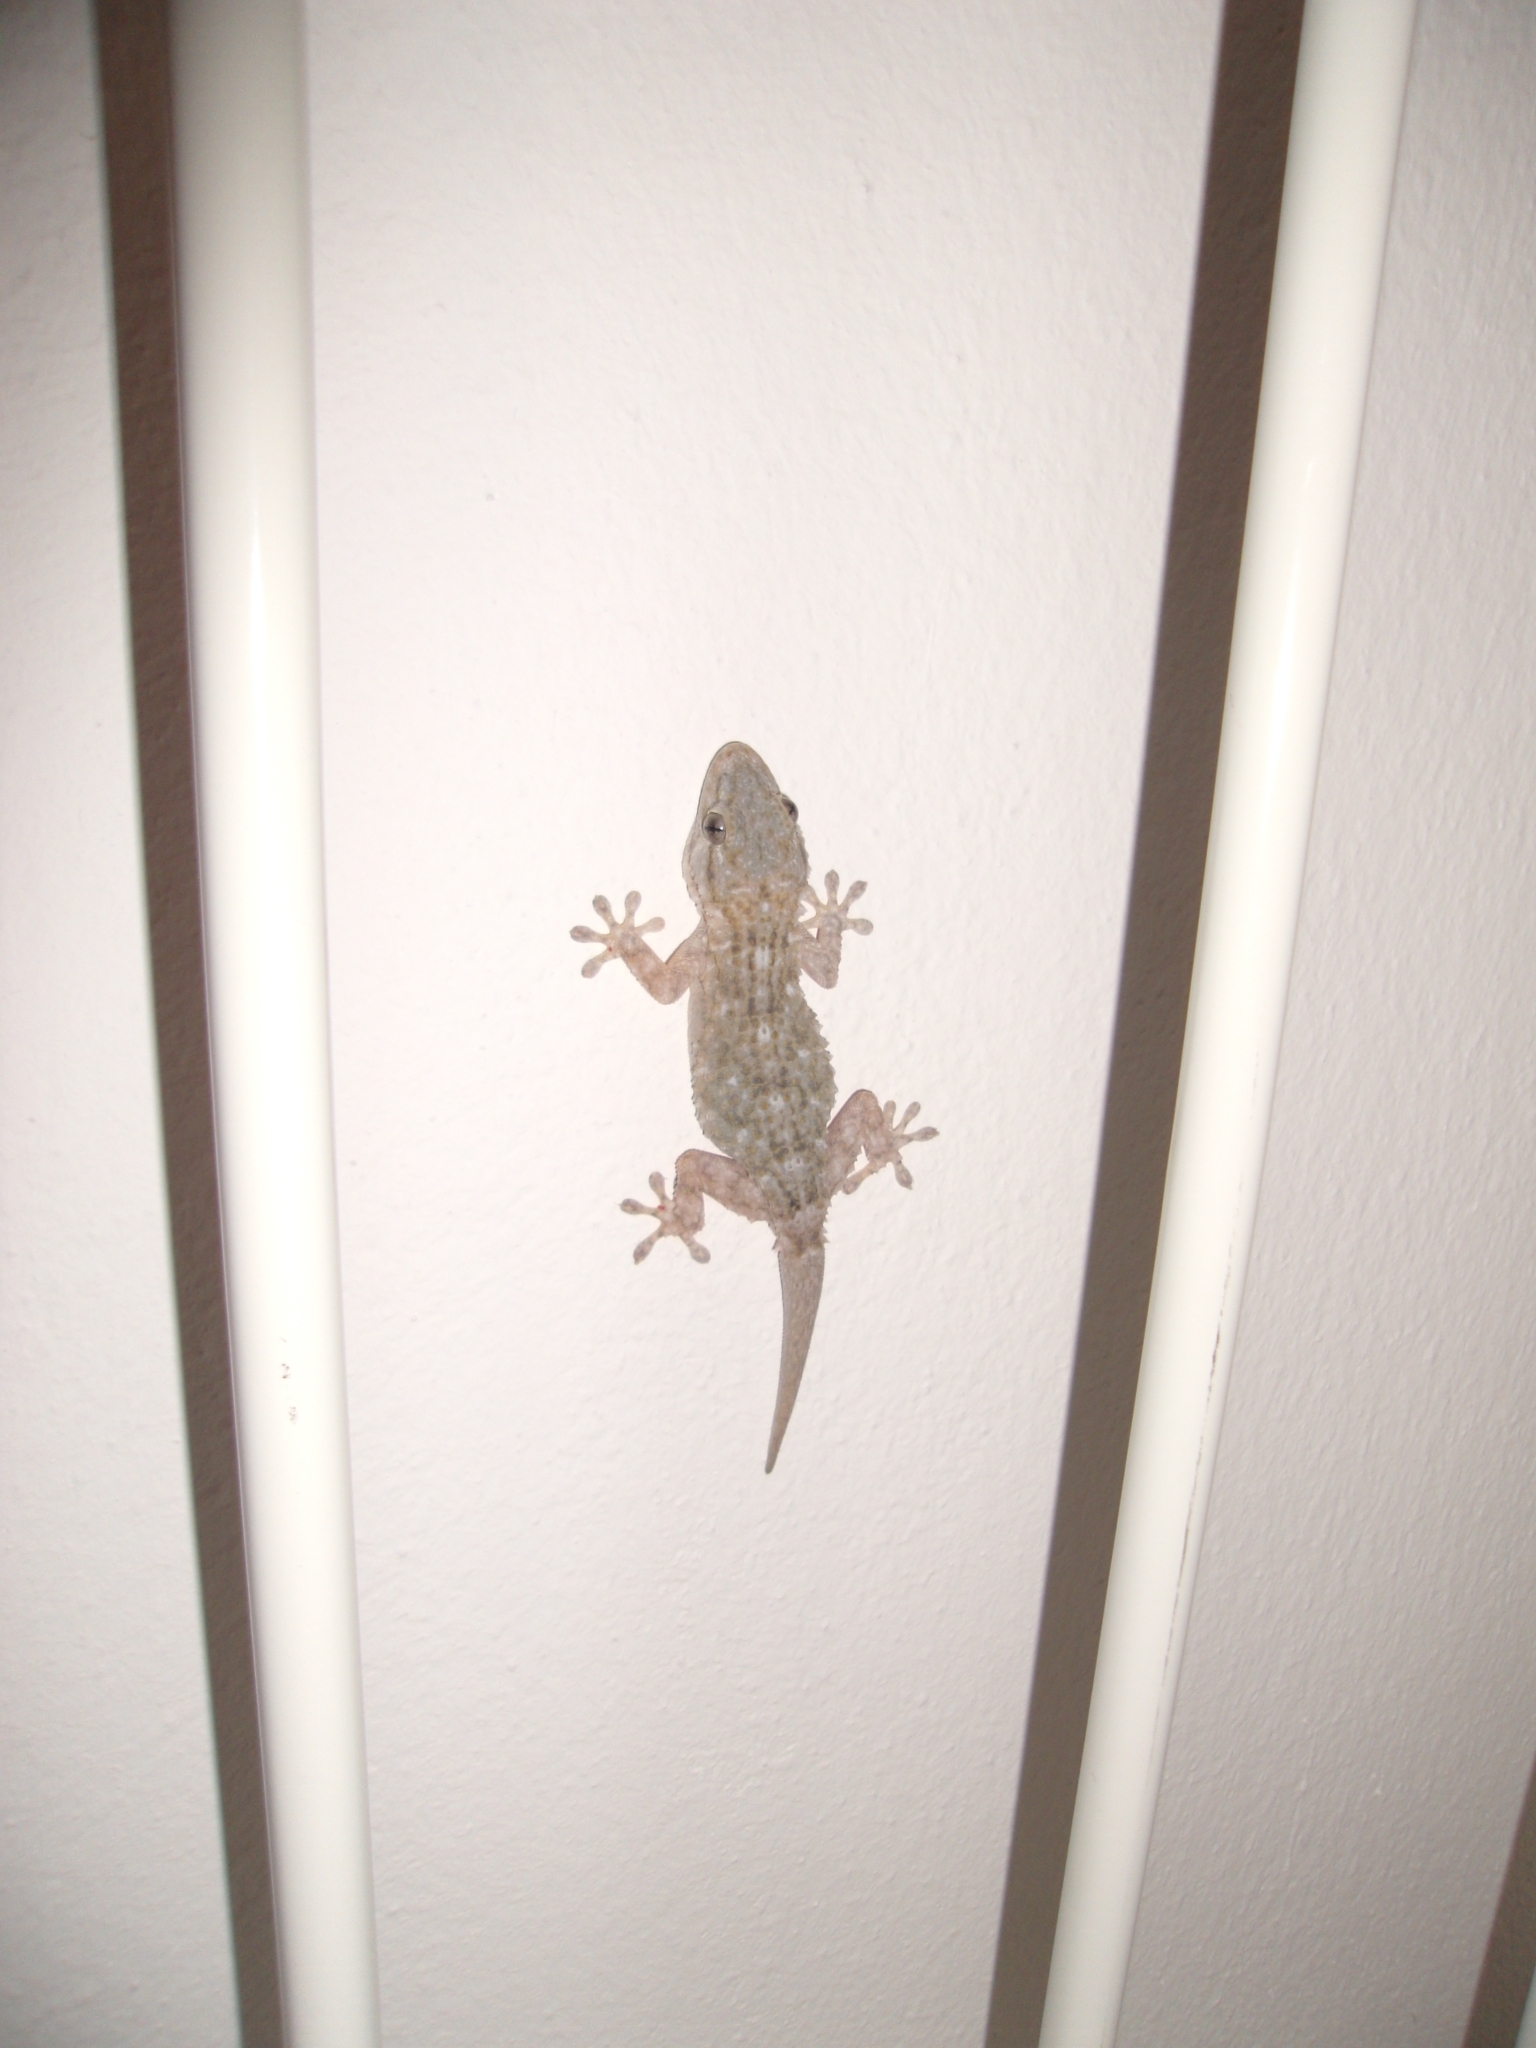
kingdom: Animalia
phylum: Chordata
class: Squamata
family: Phyllodactylidae
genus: Tarentola
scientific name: Tarentola mauritanica
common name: Moorish gecko
